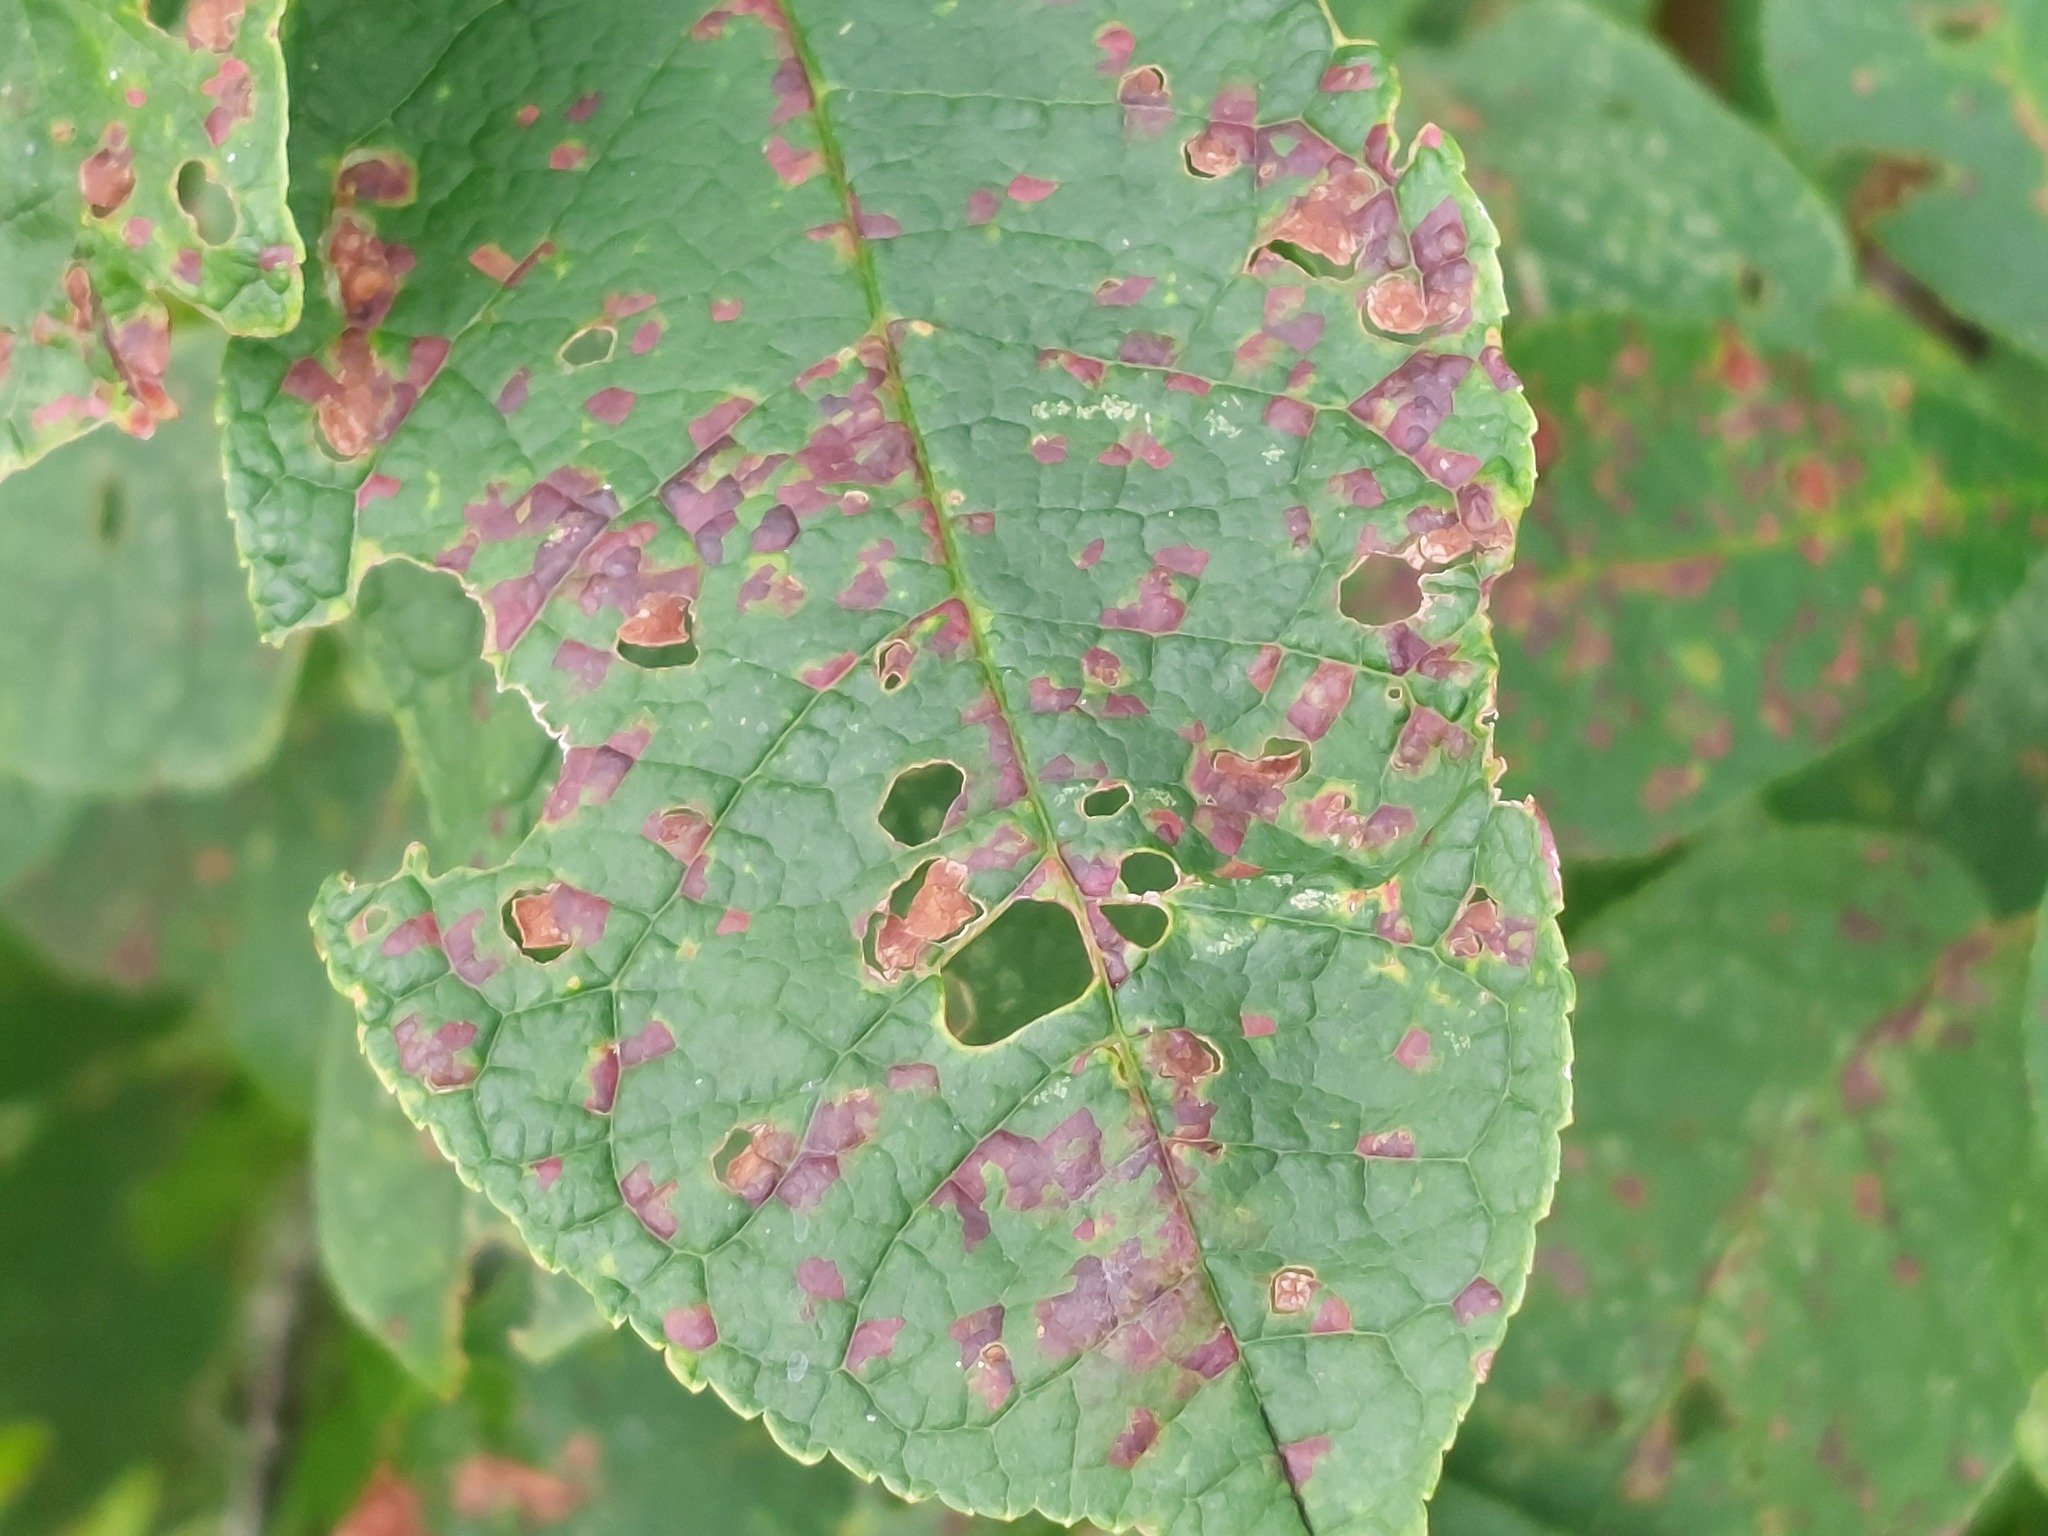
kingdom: Fungi
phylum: Basidiomycota
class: Pucciniomycetes
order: Pucciniales
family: Pucciniastraceae
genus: Thekopsora
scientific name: Thekopsora areolata
